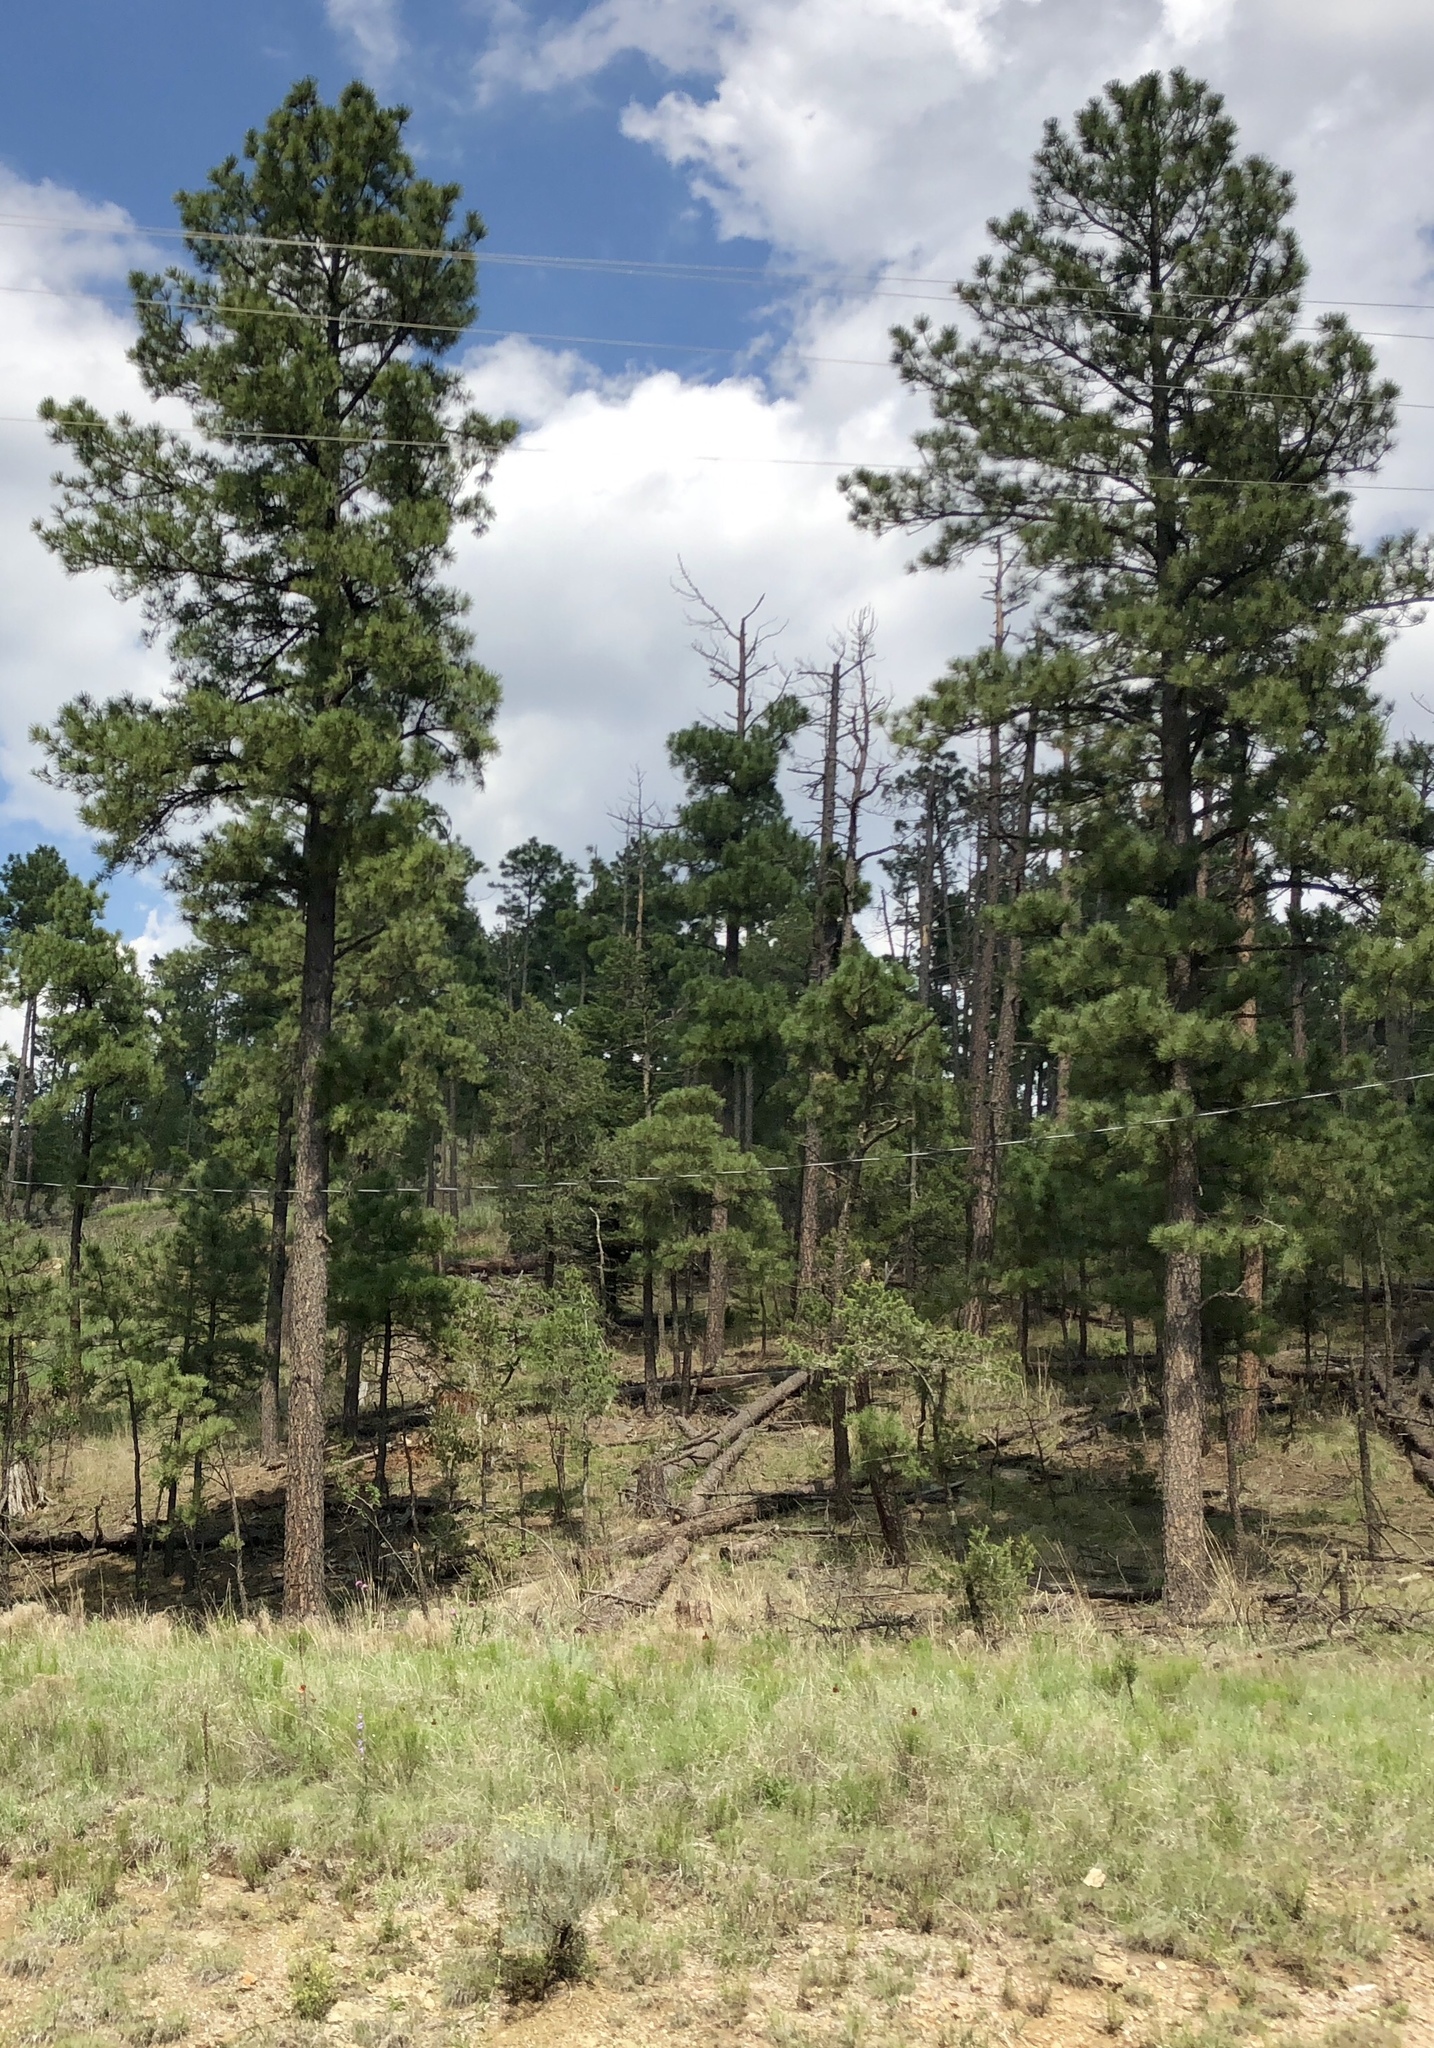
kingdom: Plantae
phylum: Tracheophyta
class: Pinopsida
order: Pinales
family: Pinaceae
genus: Pinus
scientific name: Pinus ponderosa
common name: Western yellow-pine
